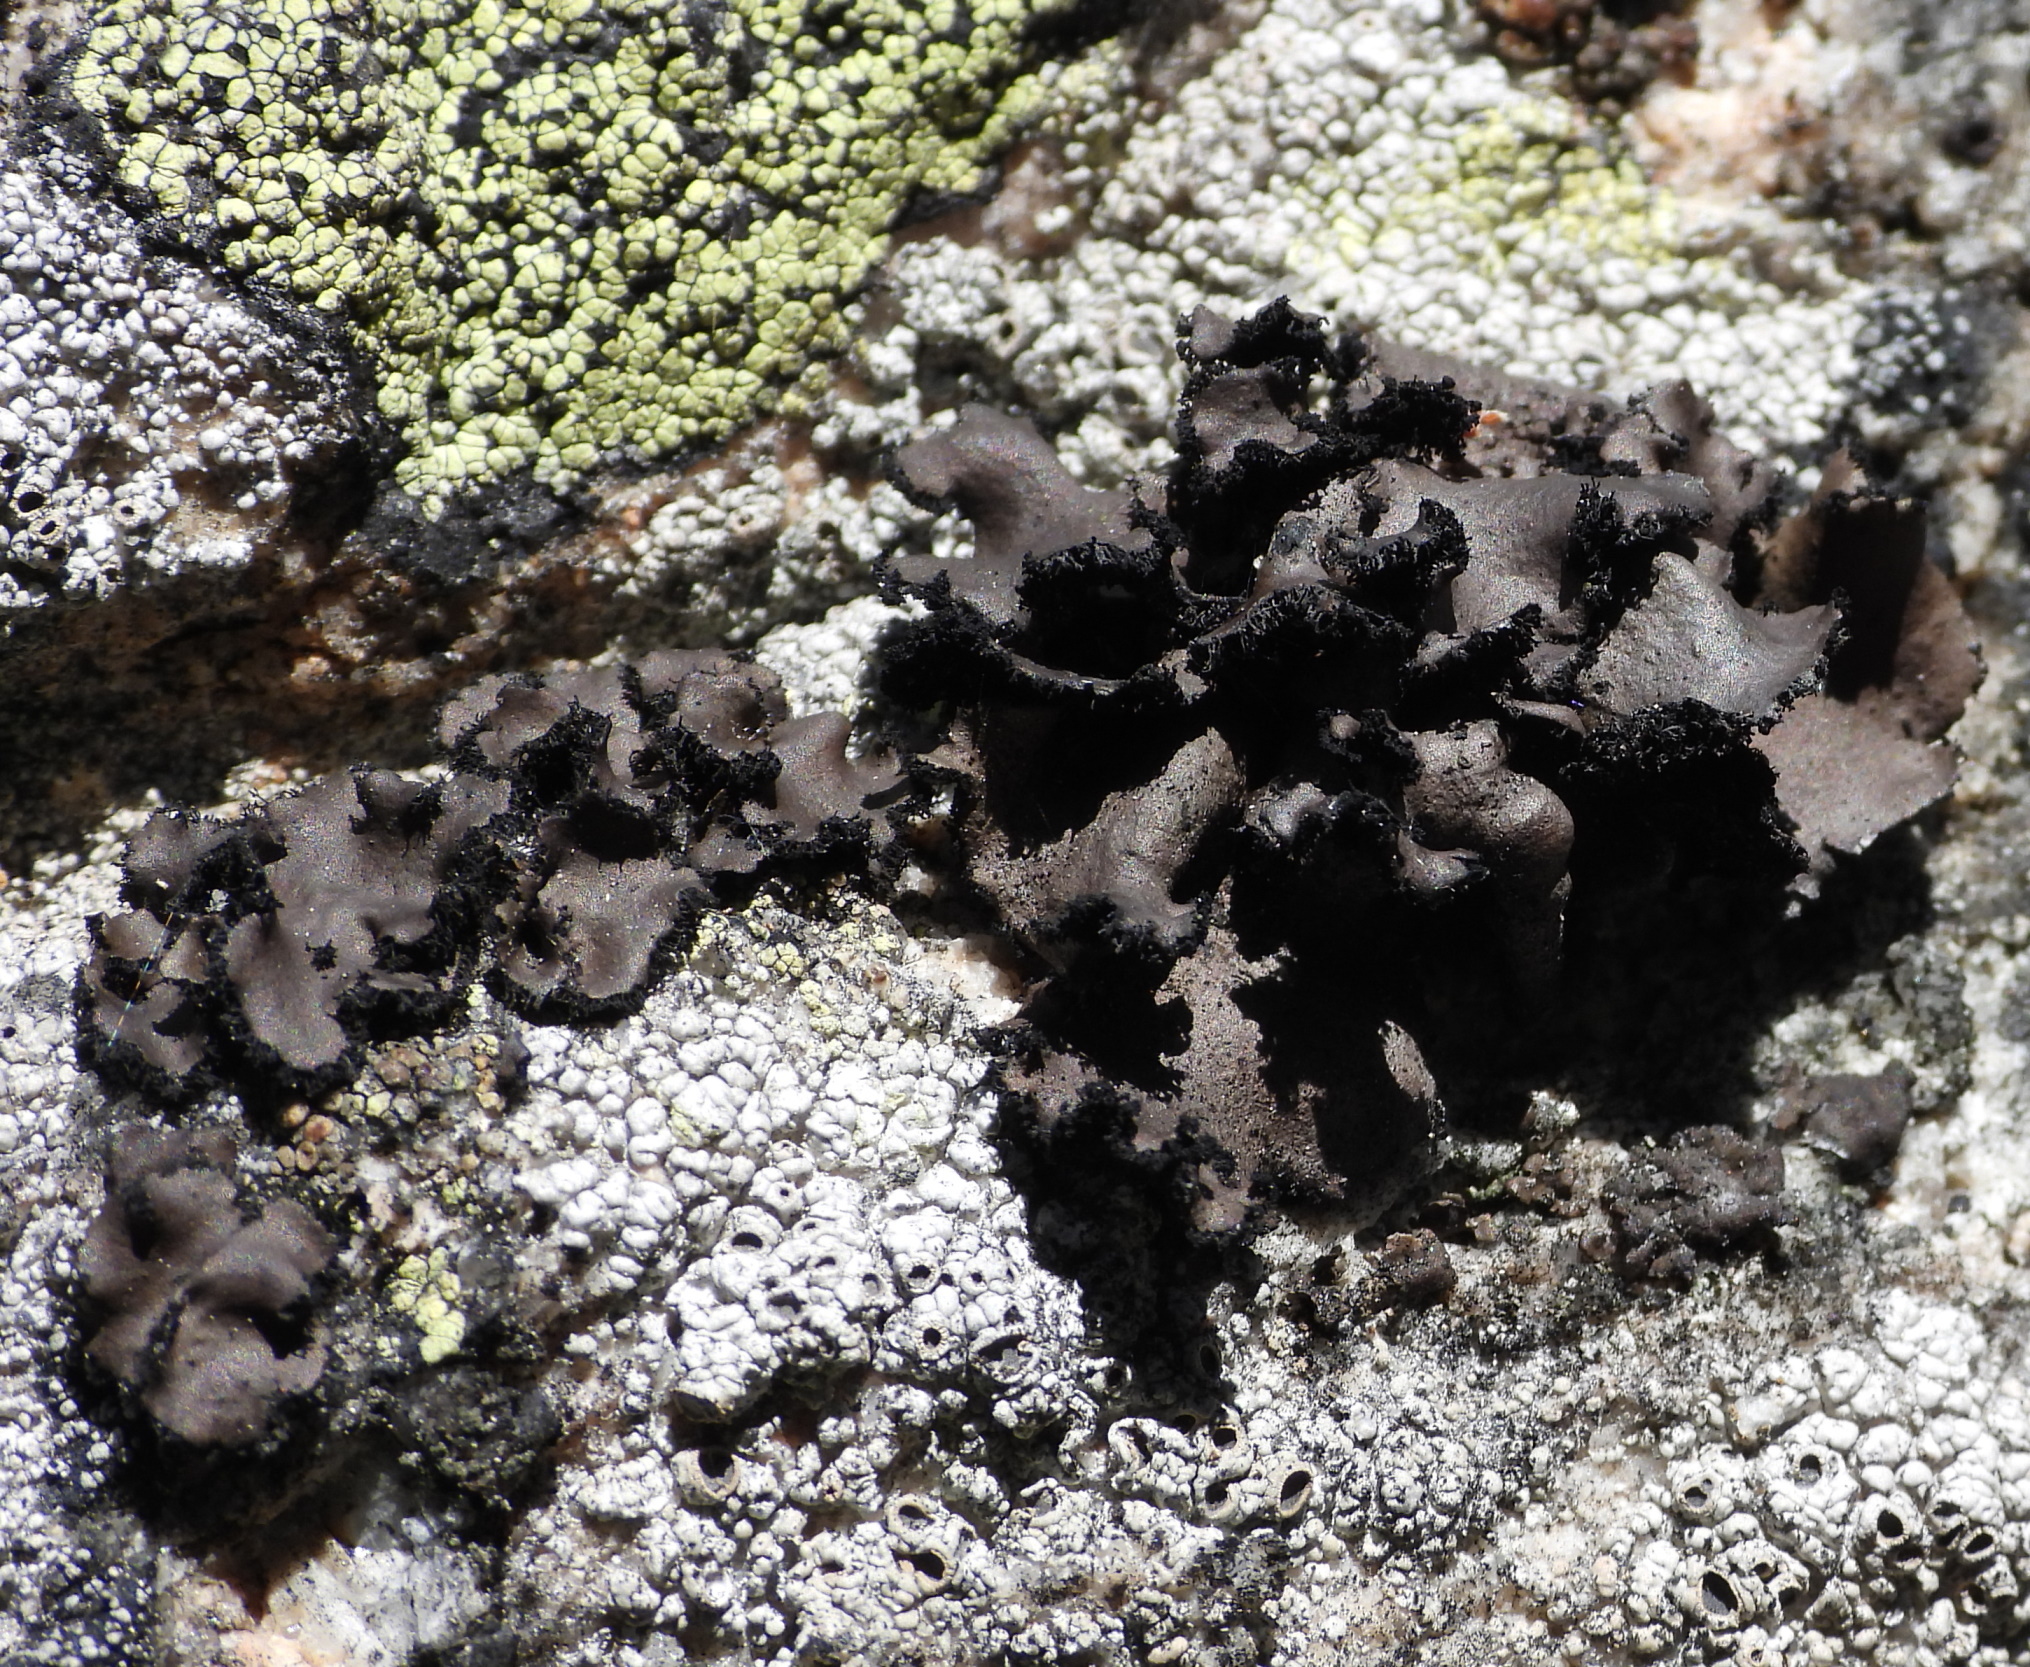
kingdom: Fungi
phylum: Ascomycota
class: Lecanoromycetes
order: Umbilicariales
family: Umbilicariaceae
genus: Umbilicaria
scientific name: Umbilicaria polyrrhiza
